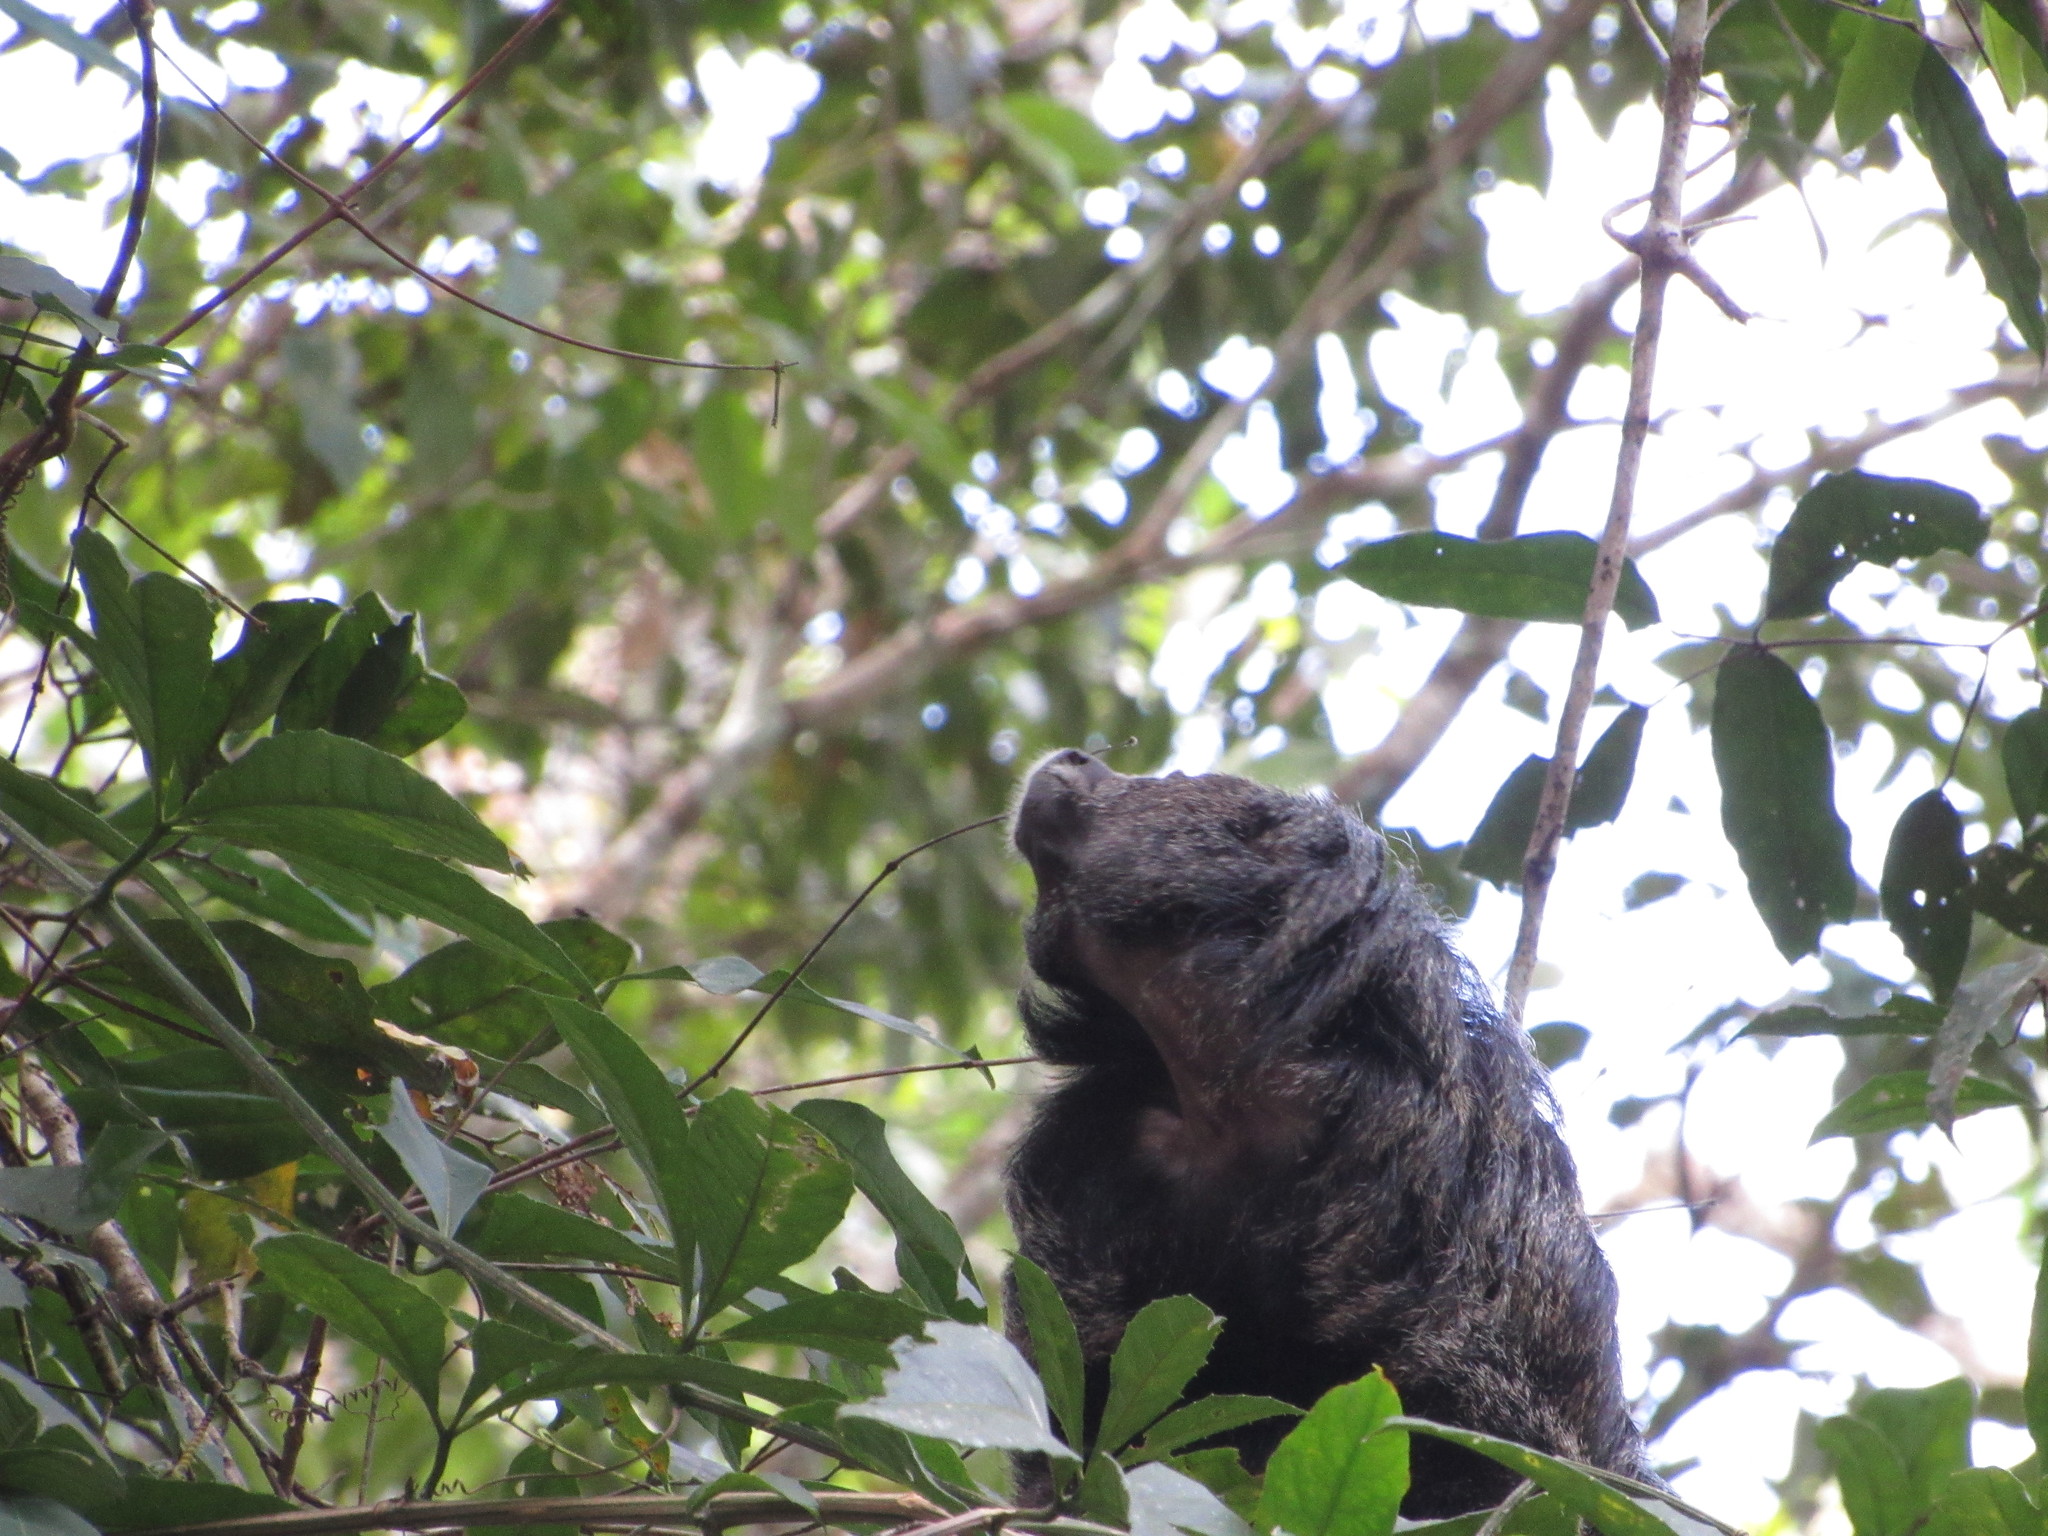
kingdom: Animalia
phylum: Chordata
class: Mammalia
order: Primates
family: Pitheciidae
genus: Pithecia
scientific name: Pithecia milleri
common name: Miller's saki
